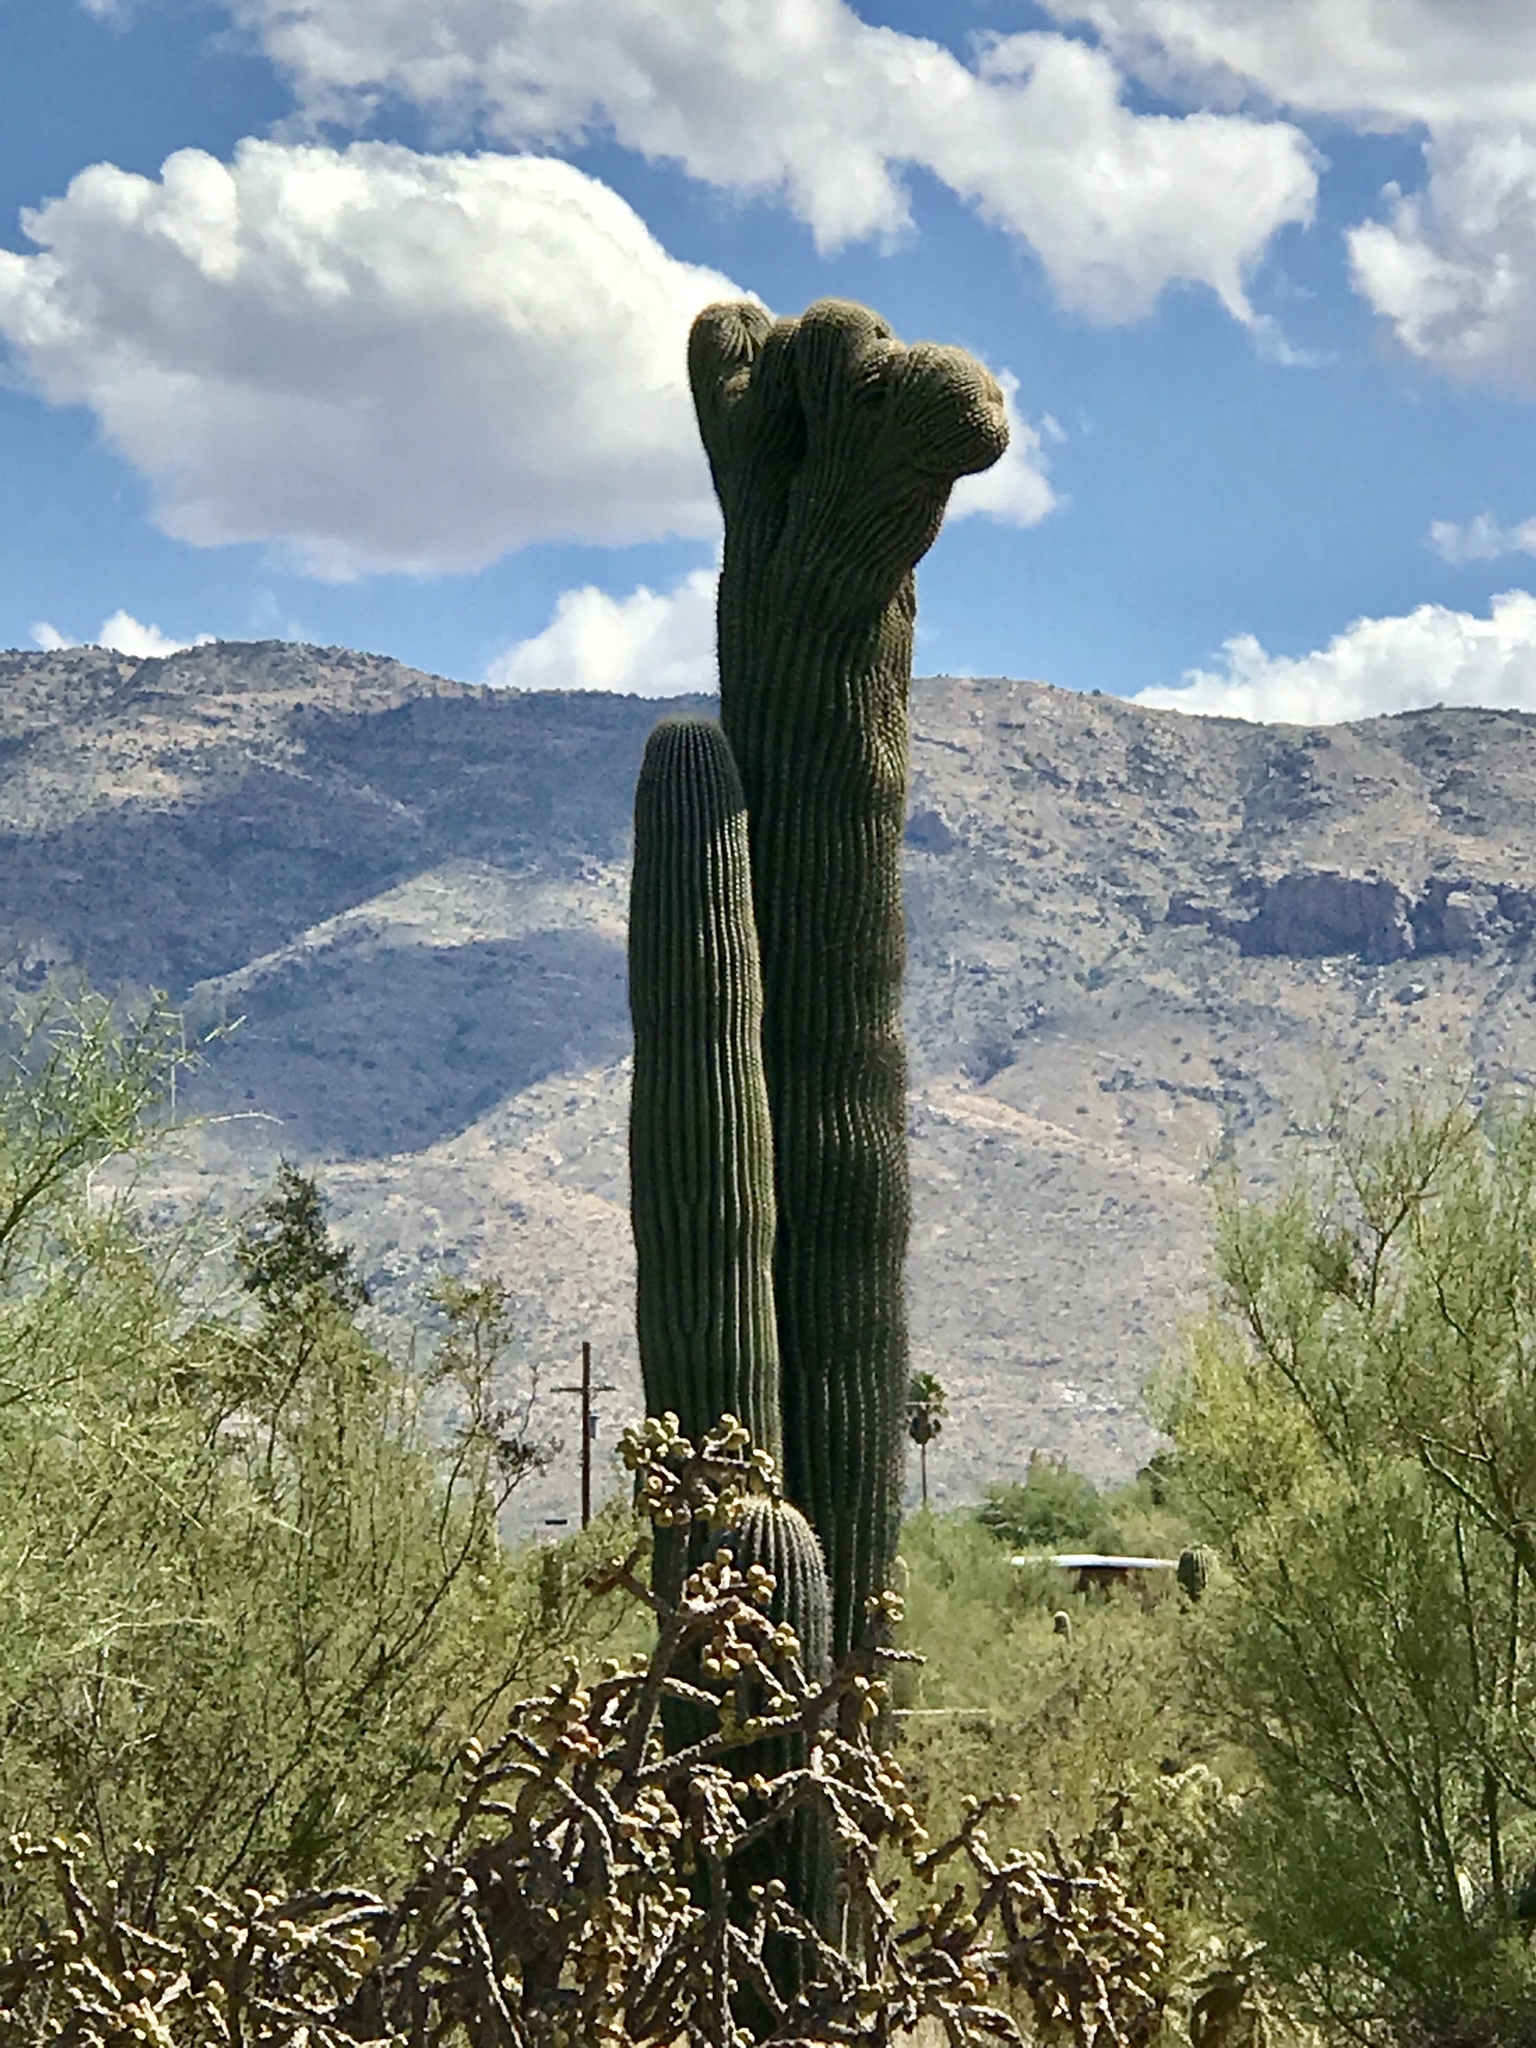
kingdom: Plantae
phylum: Tracheophyta
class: Magnoliopsida
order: Caryophyllales
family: Cactaceae
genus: Carnegiea
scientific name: Carnegiea gigantea
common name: Saguaro
